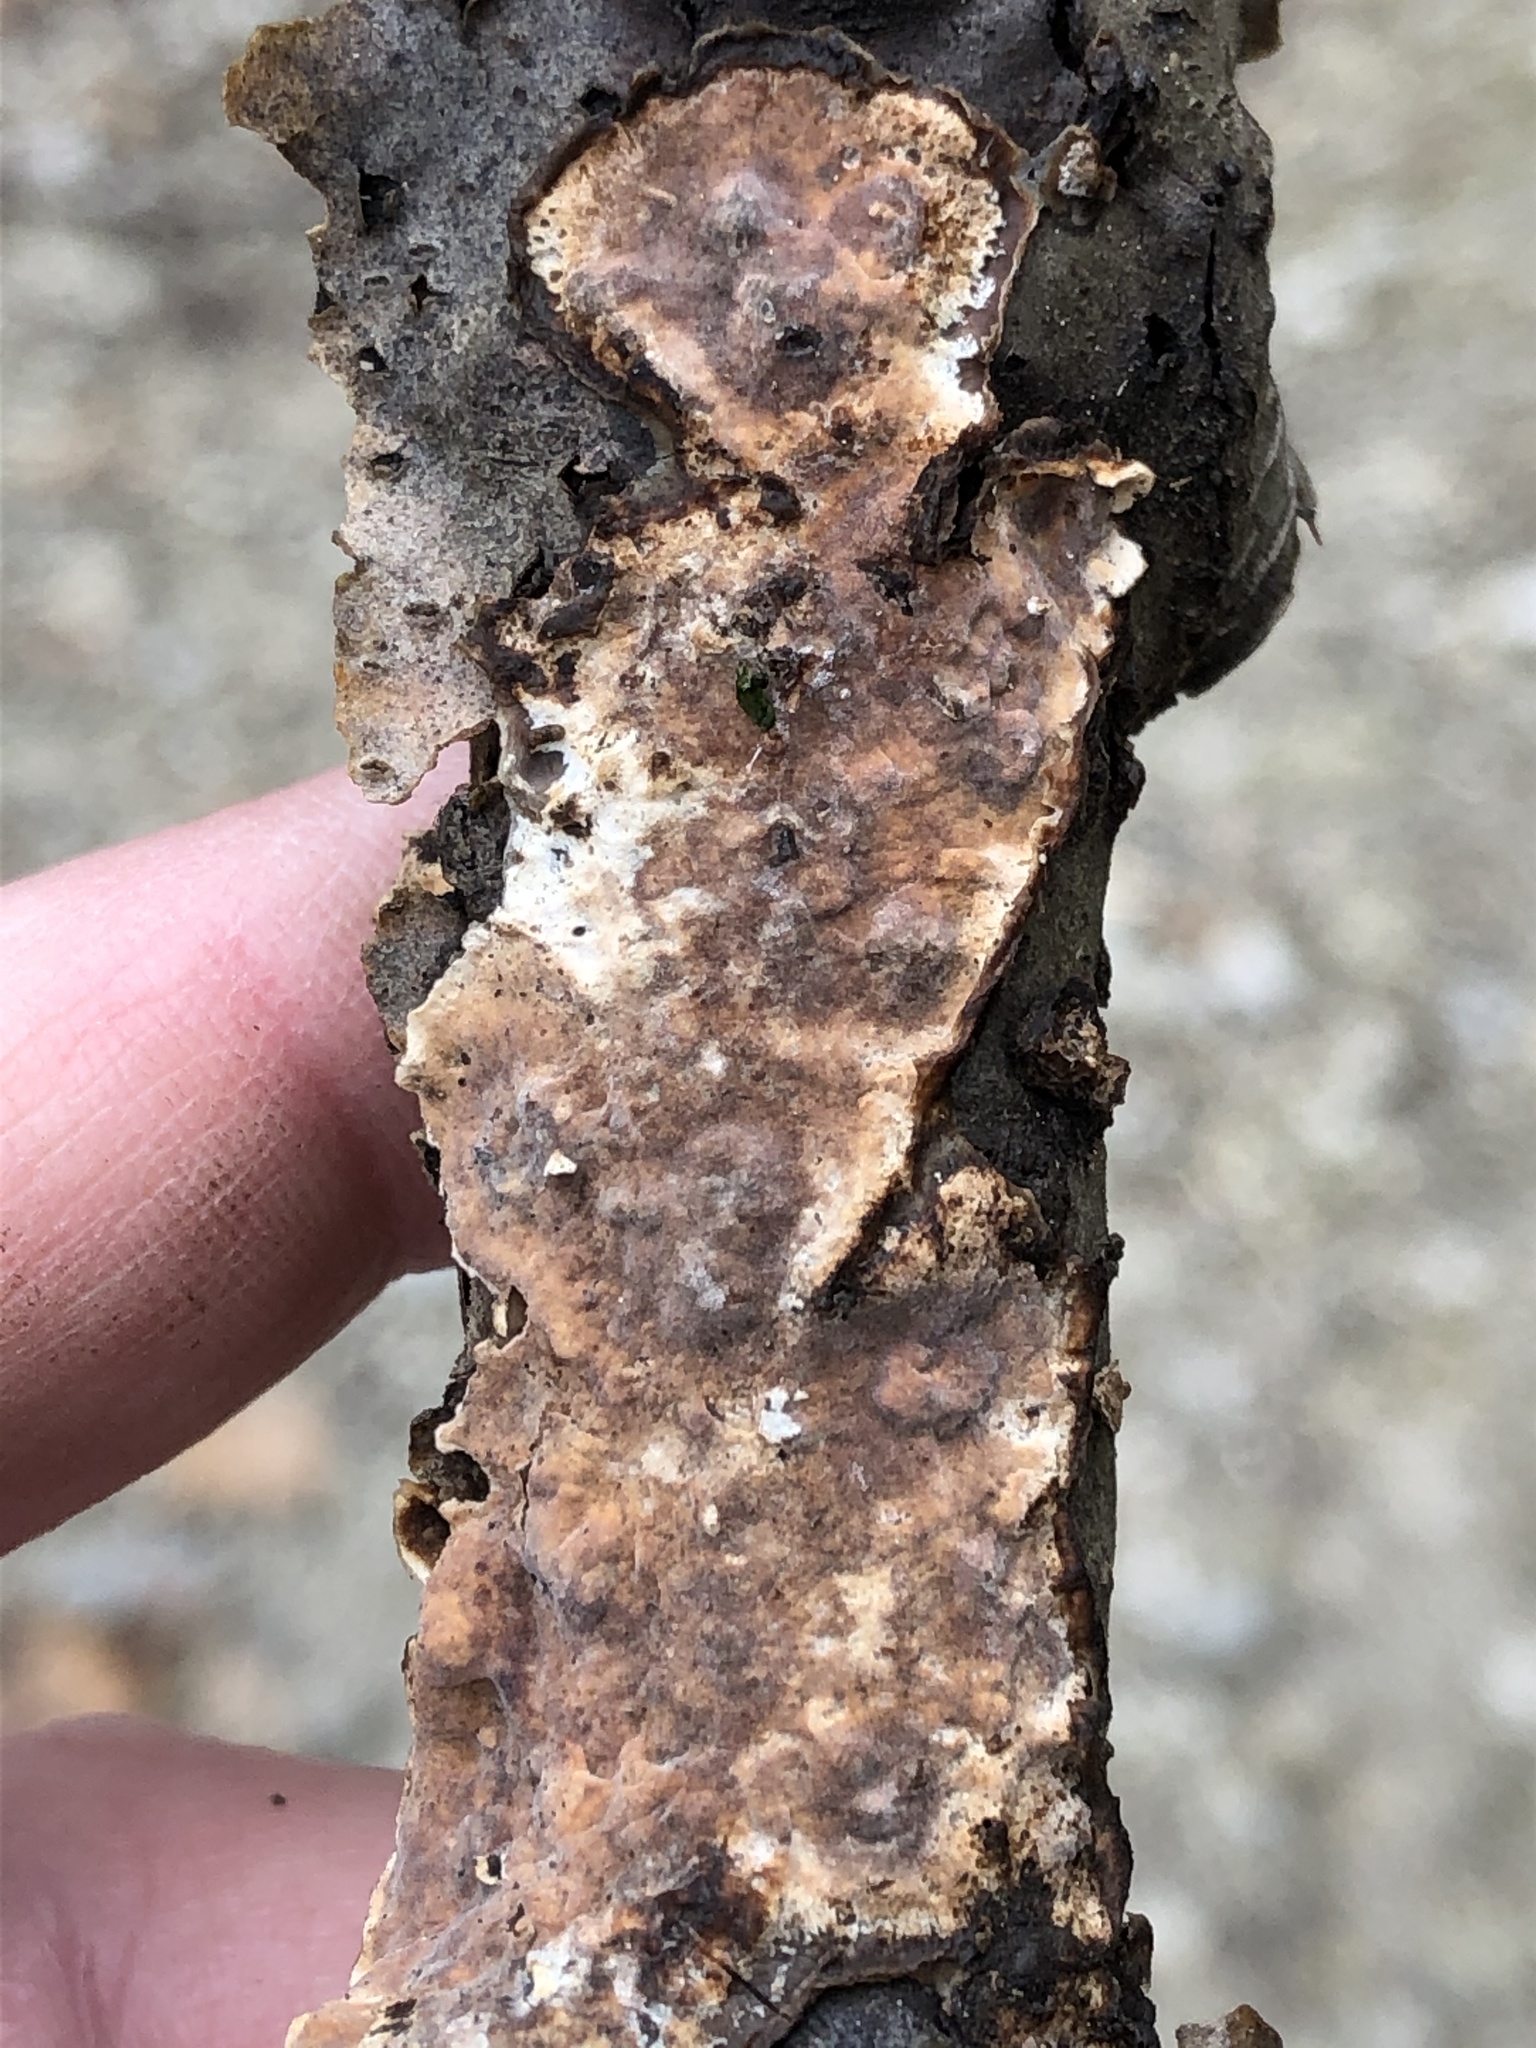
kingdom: Fungi
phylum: Basidiomycota
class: Agaricomycetes
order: Russulales
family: Stereaceae
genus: Stereum
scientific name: Stereum gausapatum
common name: Bleeding oak crust
